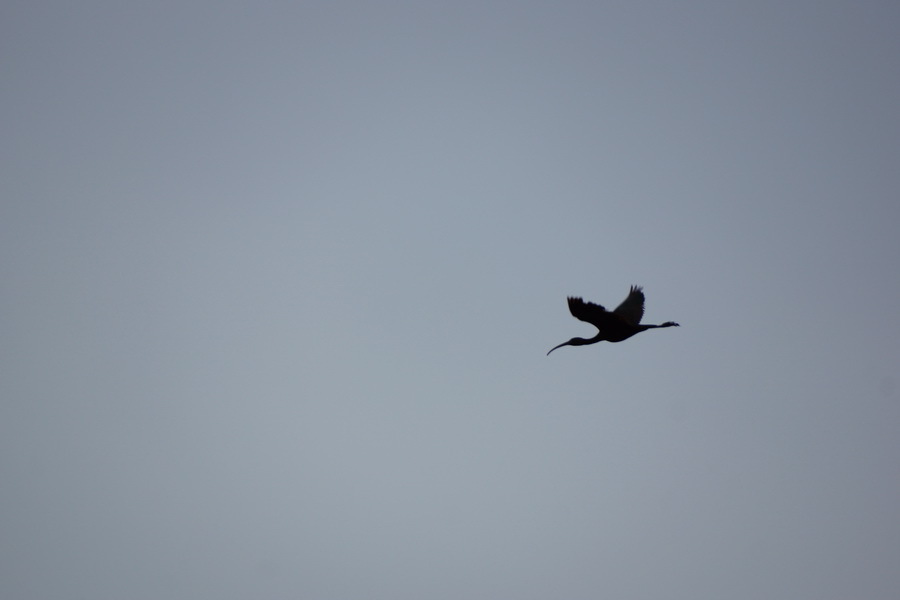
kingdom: Animalia
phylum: Chordata
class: Aves
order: Pelecaniformes
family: Threskiornithidae
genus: Plegadis
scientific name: Plegadis falcinellus
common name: Glossy ibis
